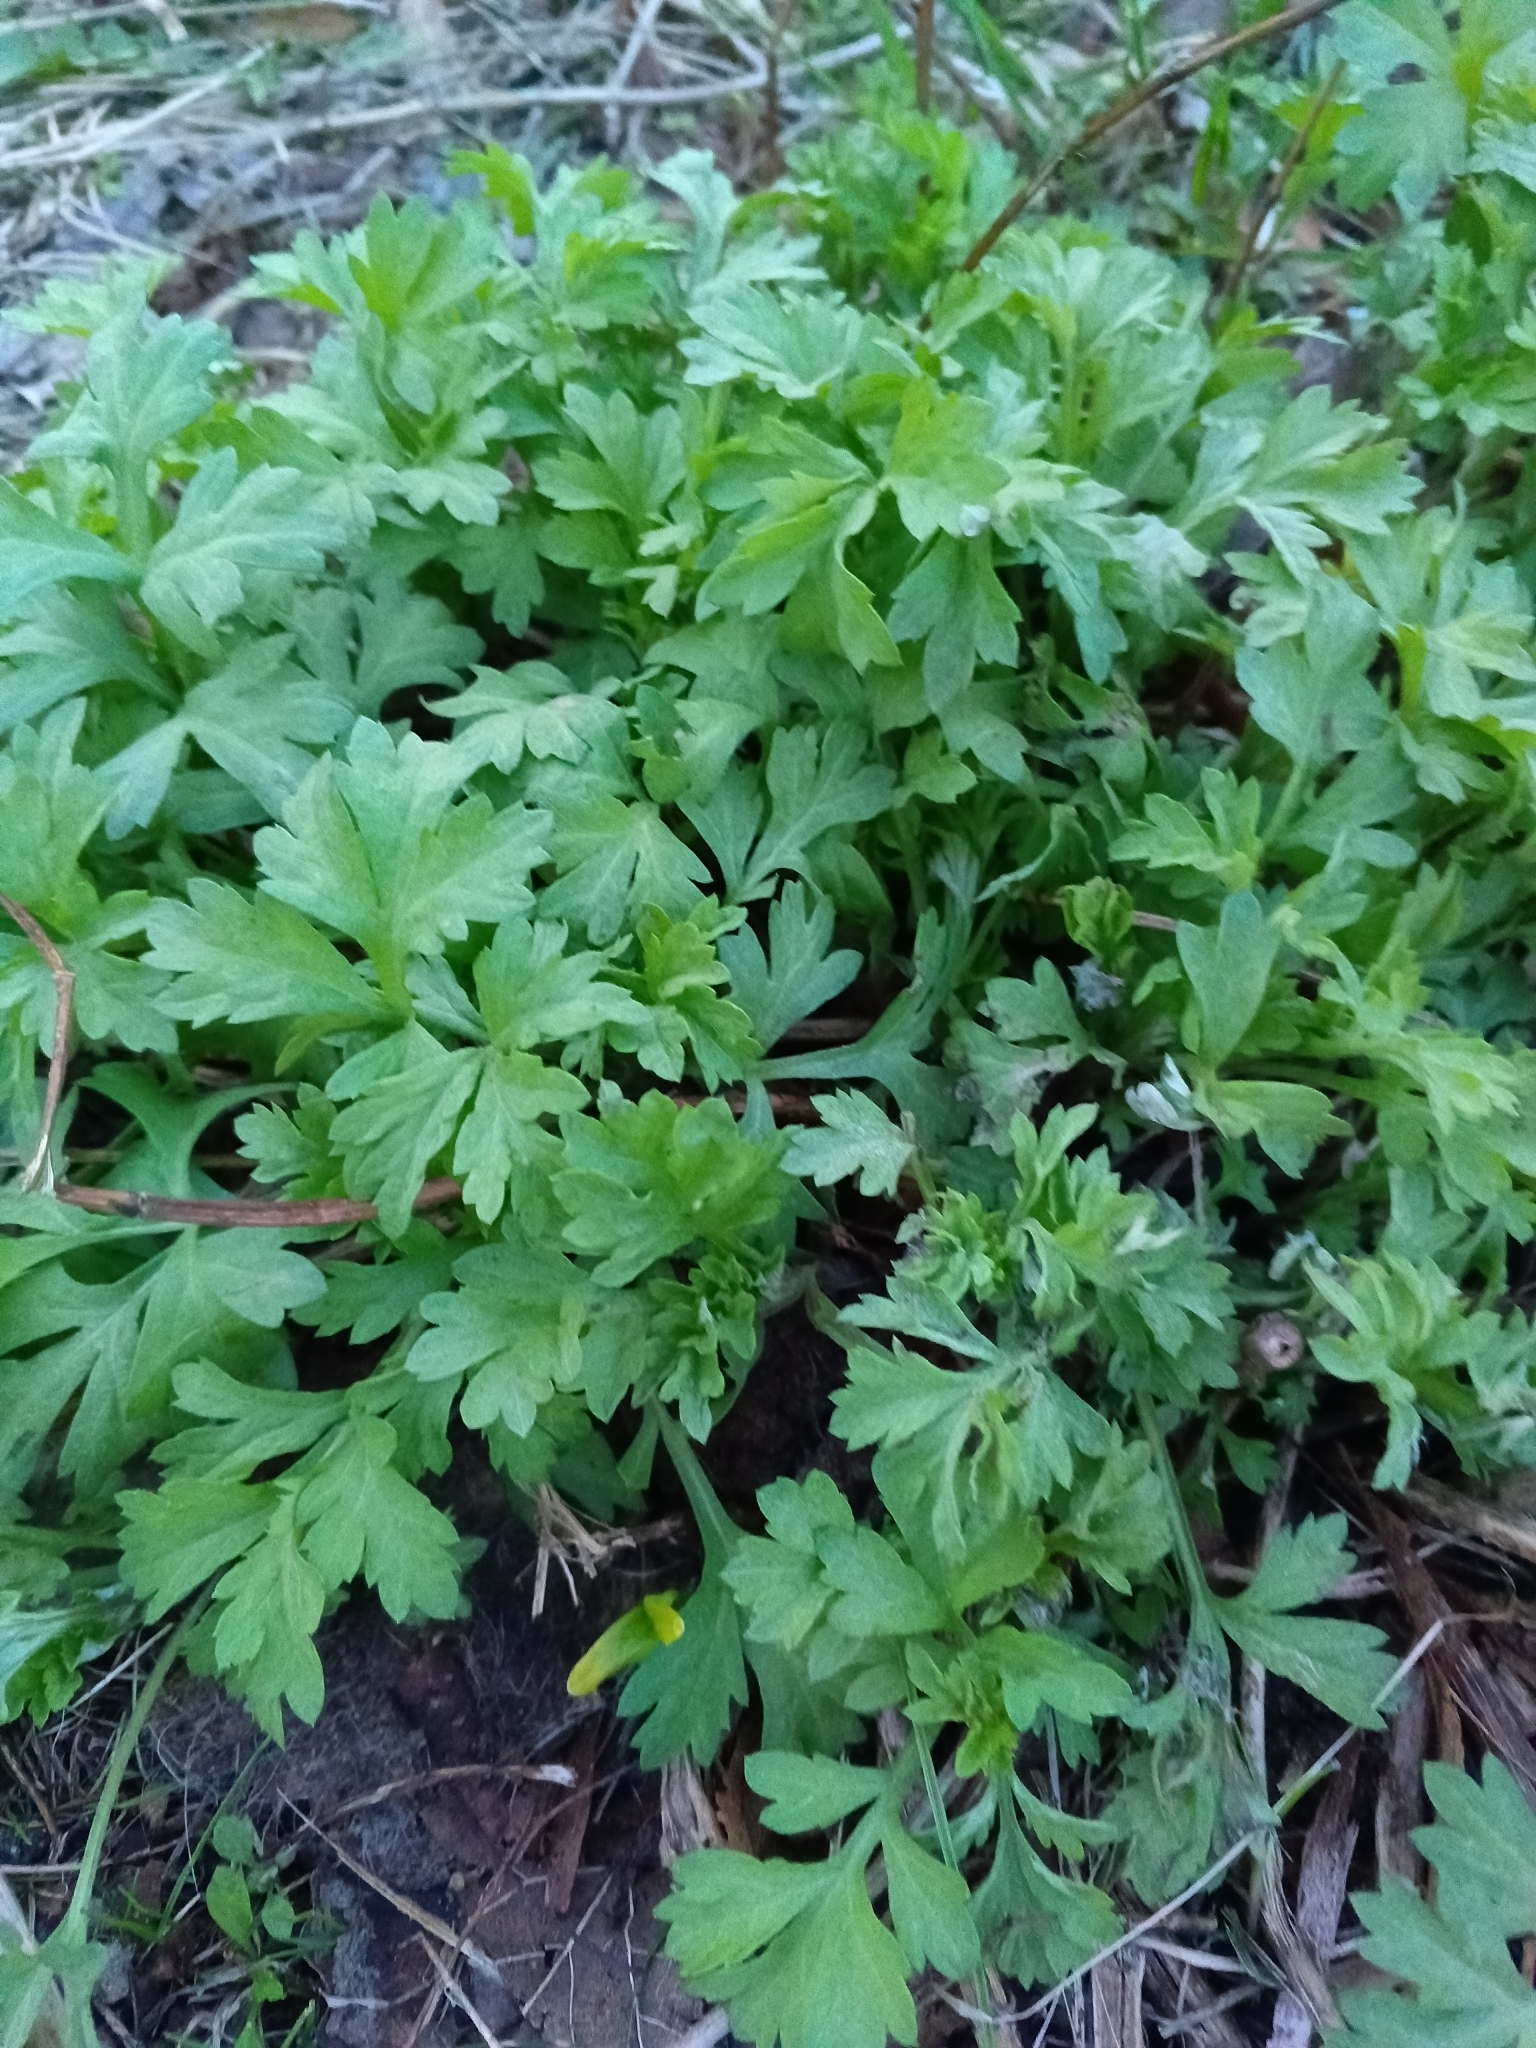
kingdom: Plantae
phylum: Tracheophyta
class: Magnoliopsida
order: Asterales
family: Asteraceae
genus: Artemisia
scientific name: Artemisia vulgaris
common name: Mugwort
